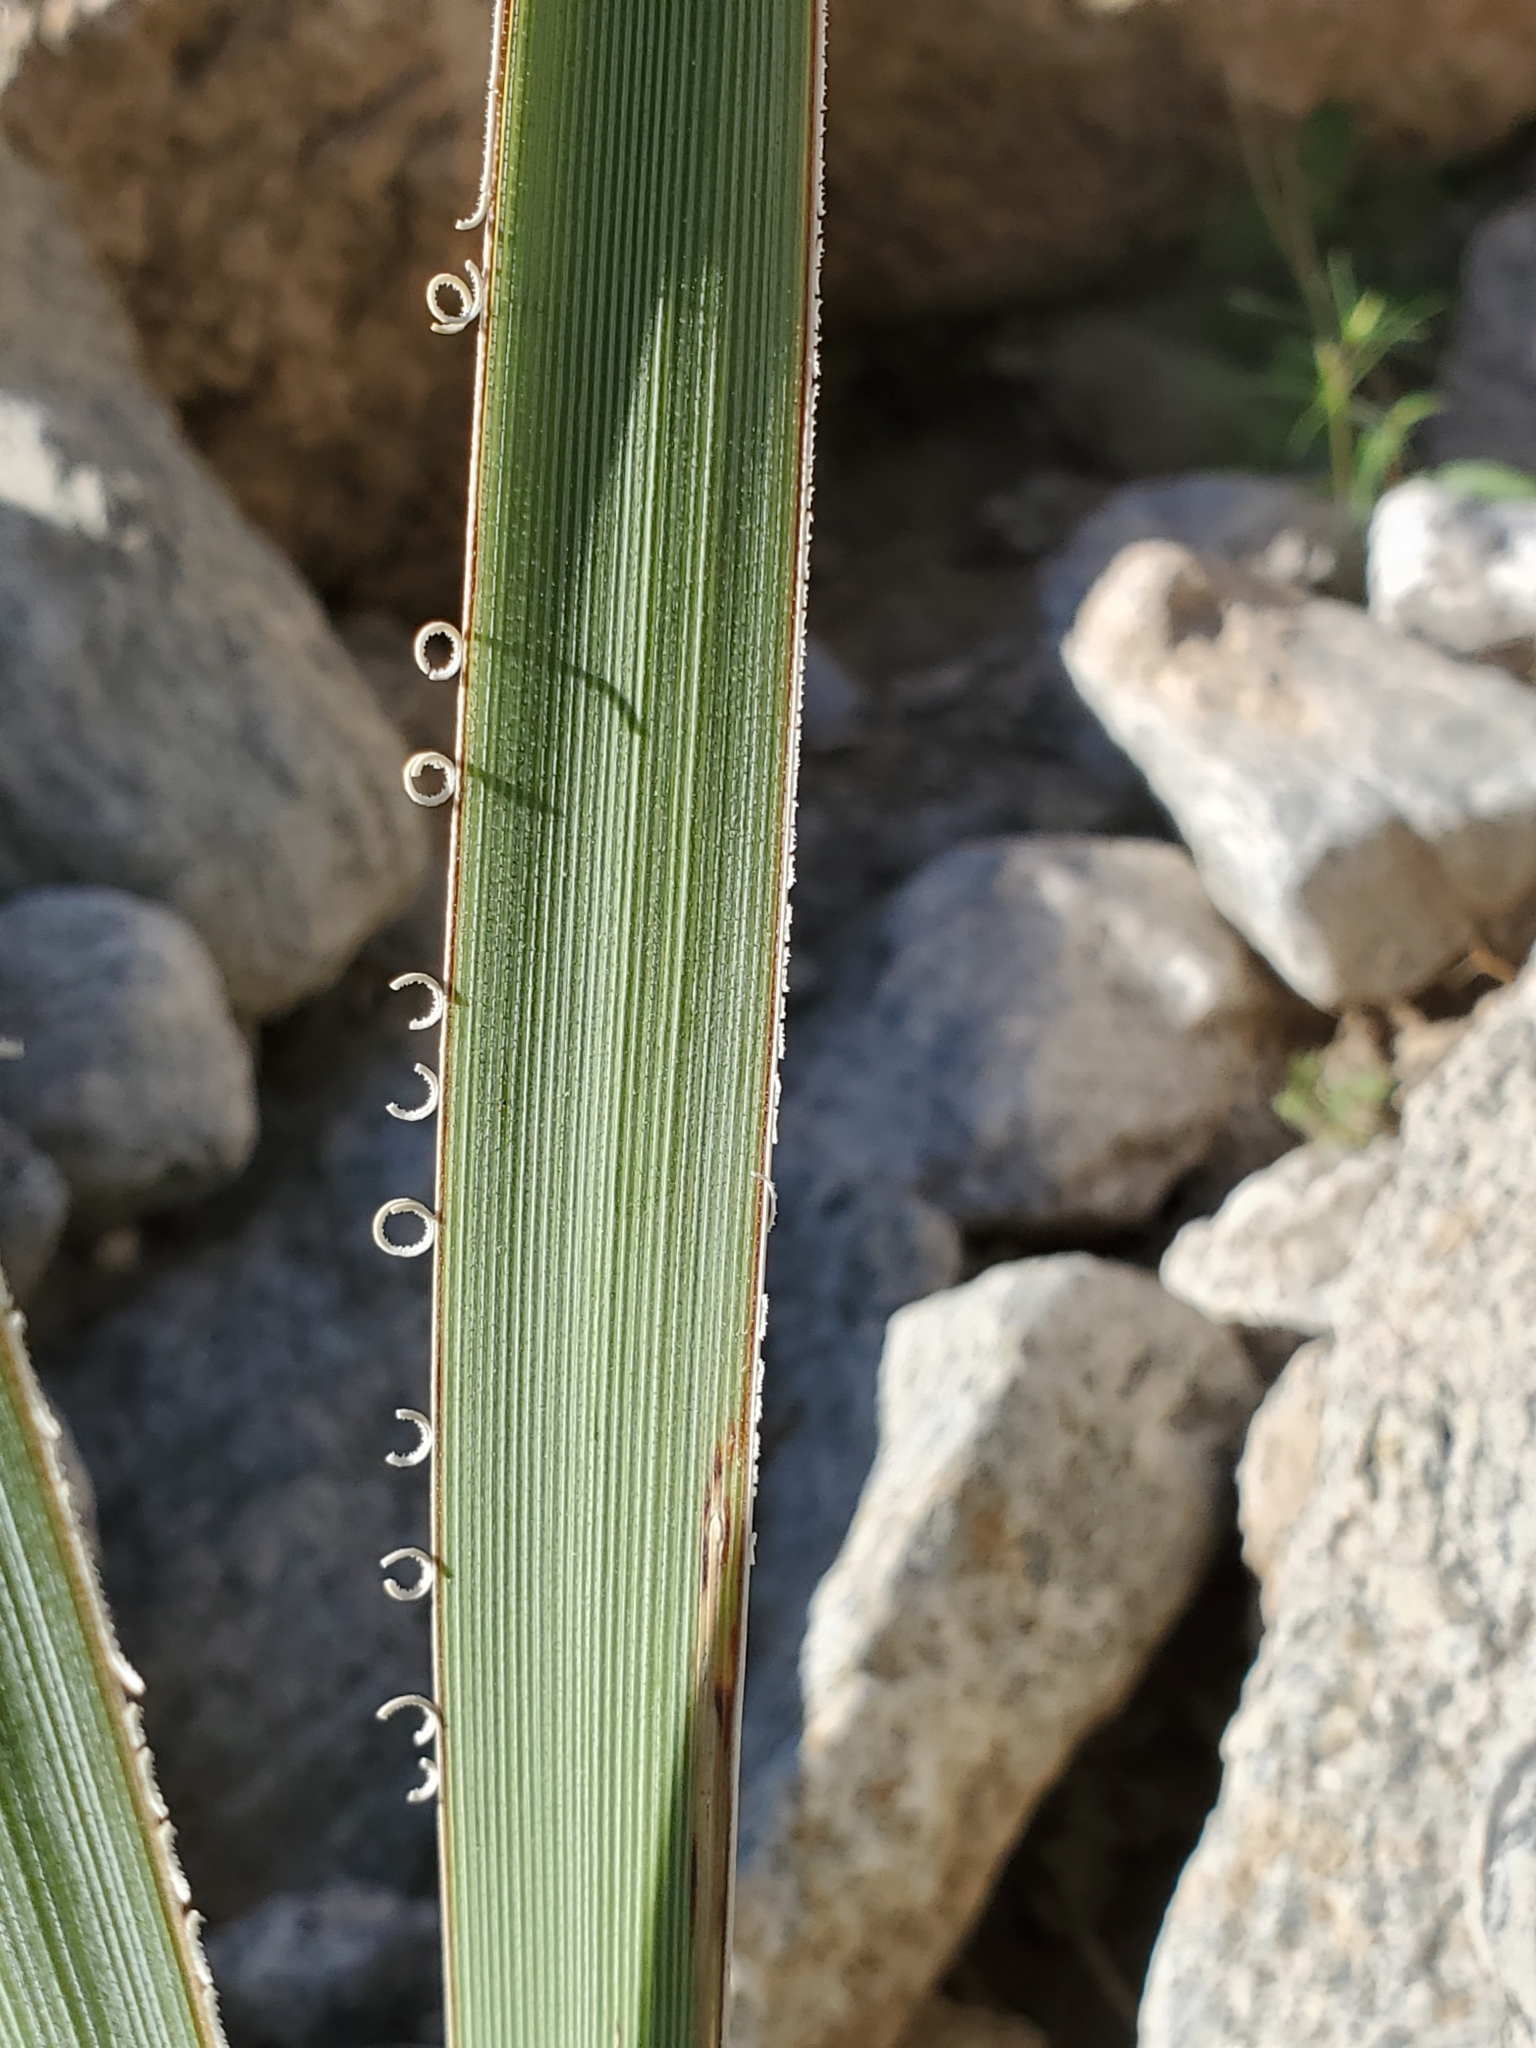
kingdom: Plantae
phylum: Tracheophyta
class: Liliopsida
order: Asparagales
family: Asparagaceae
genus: Nolina
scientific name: Nolina bigelovii
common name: Bigelow bear-grass
